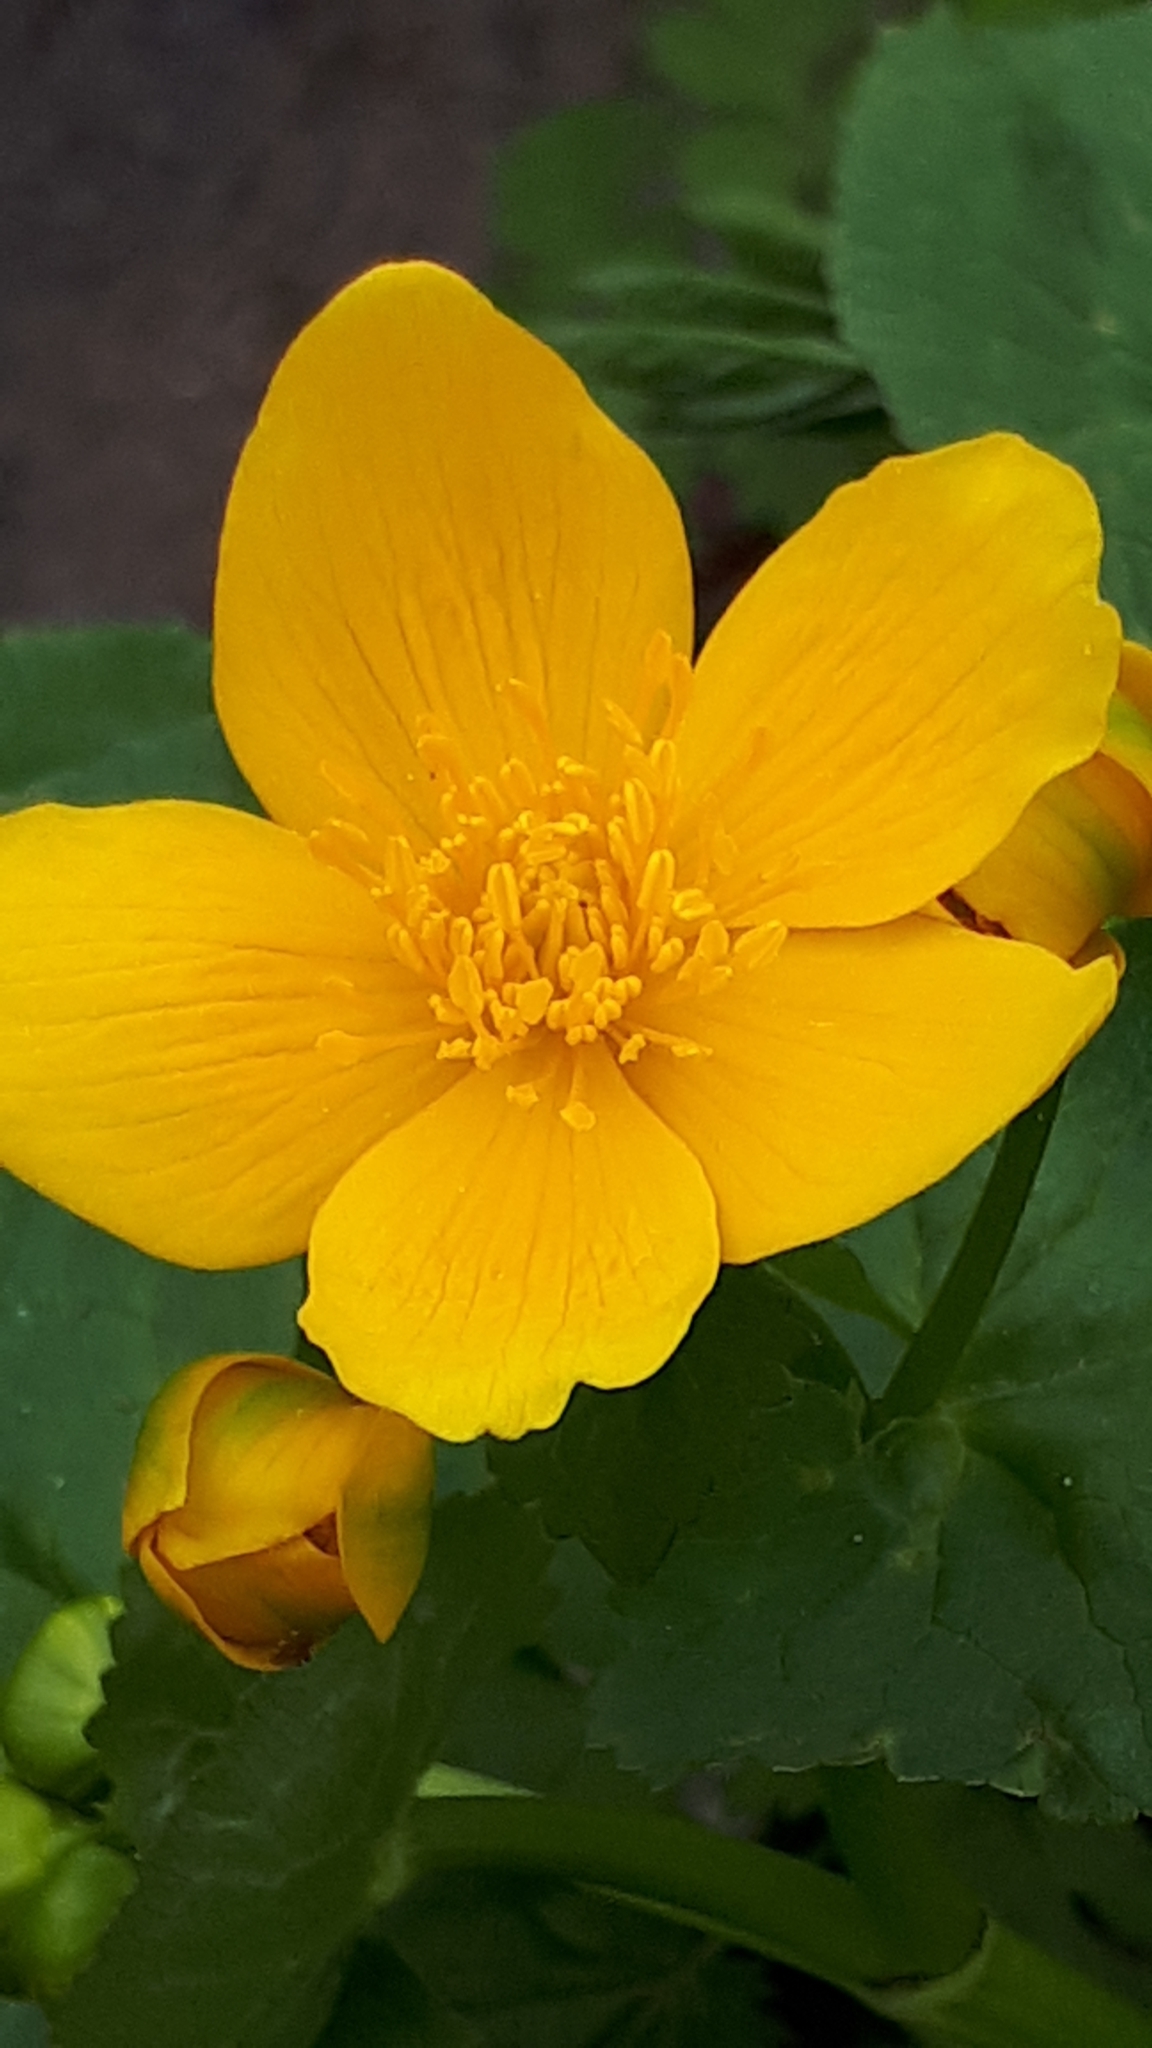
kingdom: Plantae
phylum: Tracheophyta
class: Magnoliopsida
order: Ranunculales
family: Ranunculaceae
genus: Caltha
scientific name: Caltha palustris
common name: Marsh marigold
